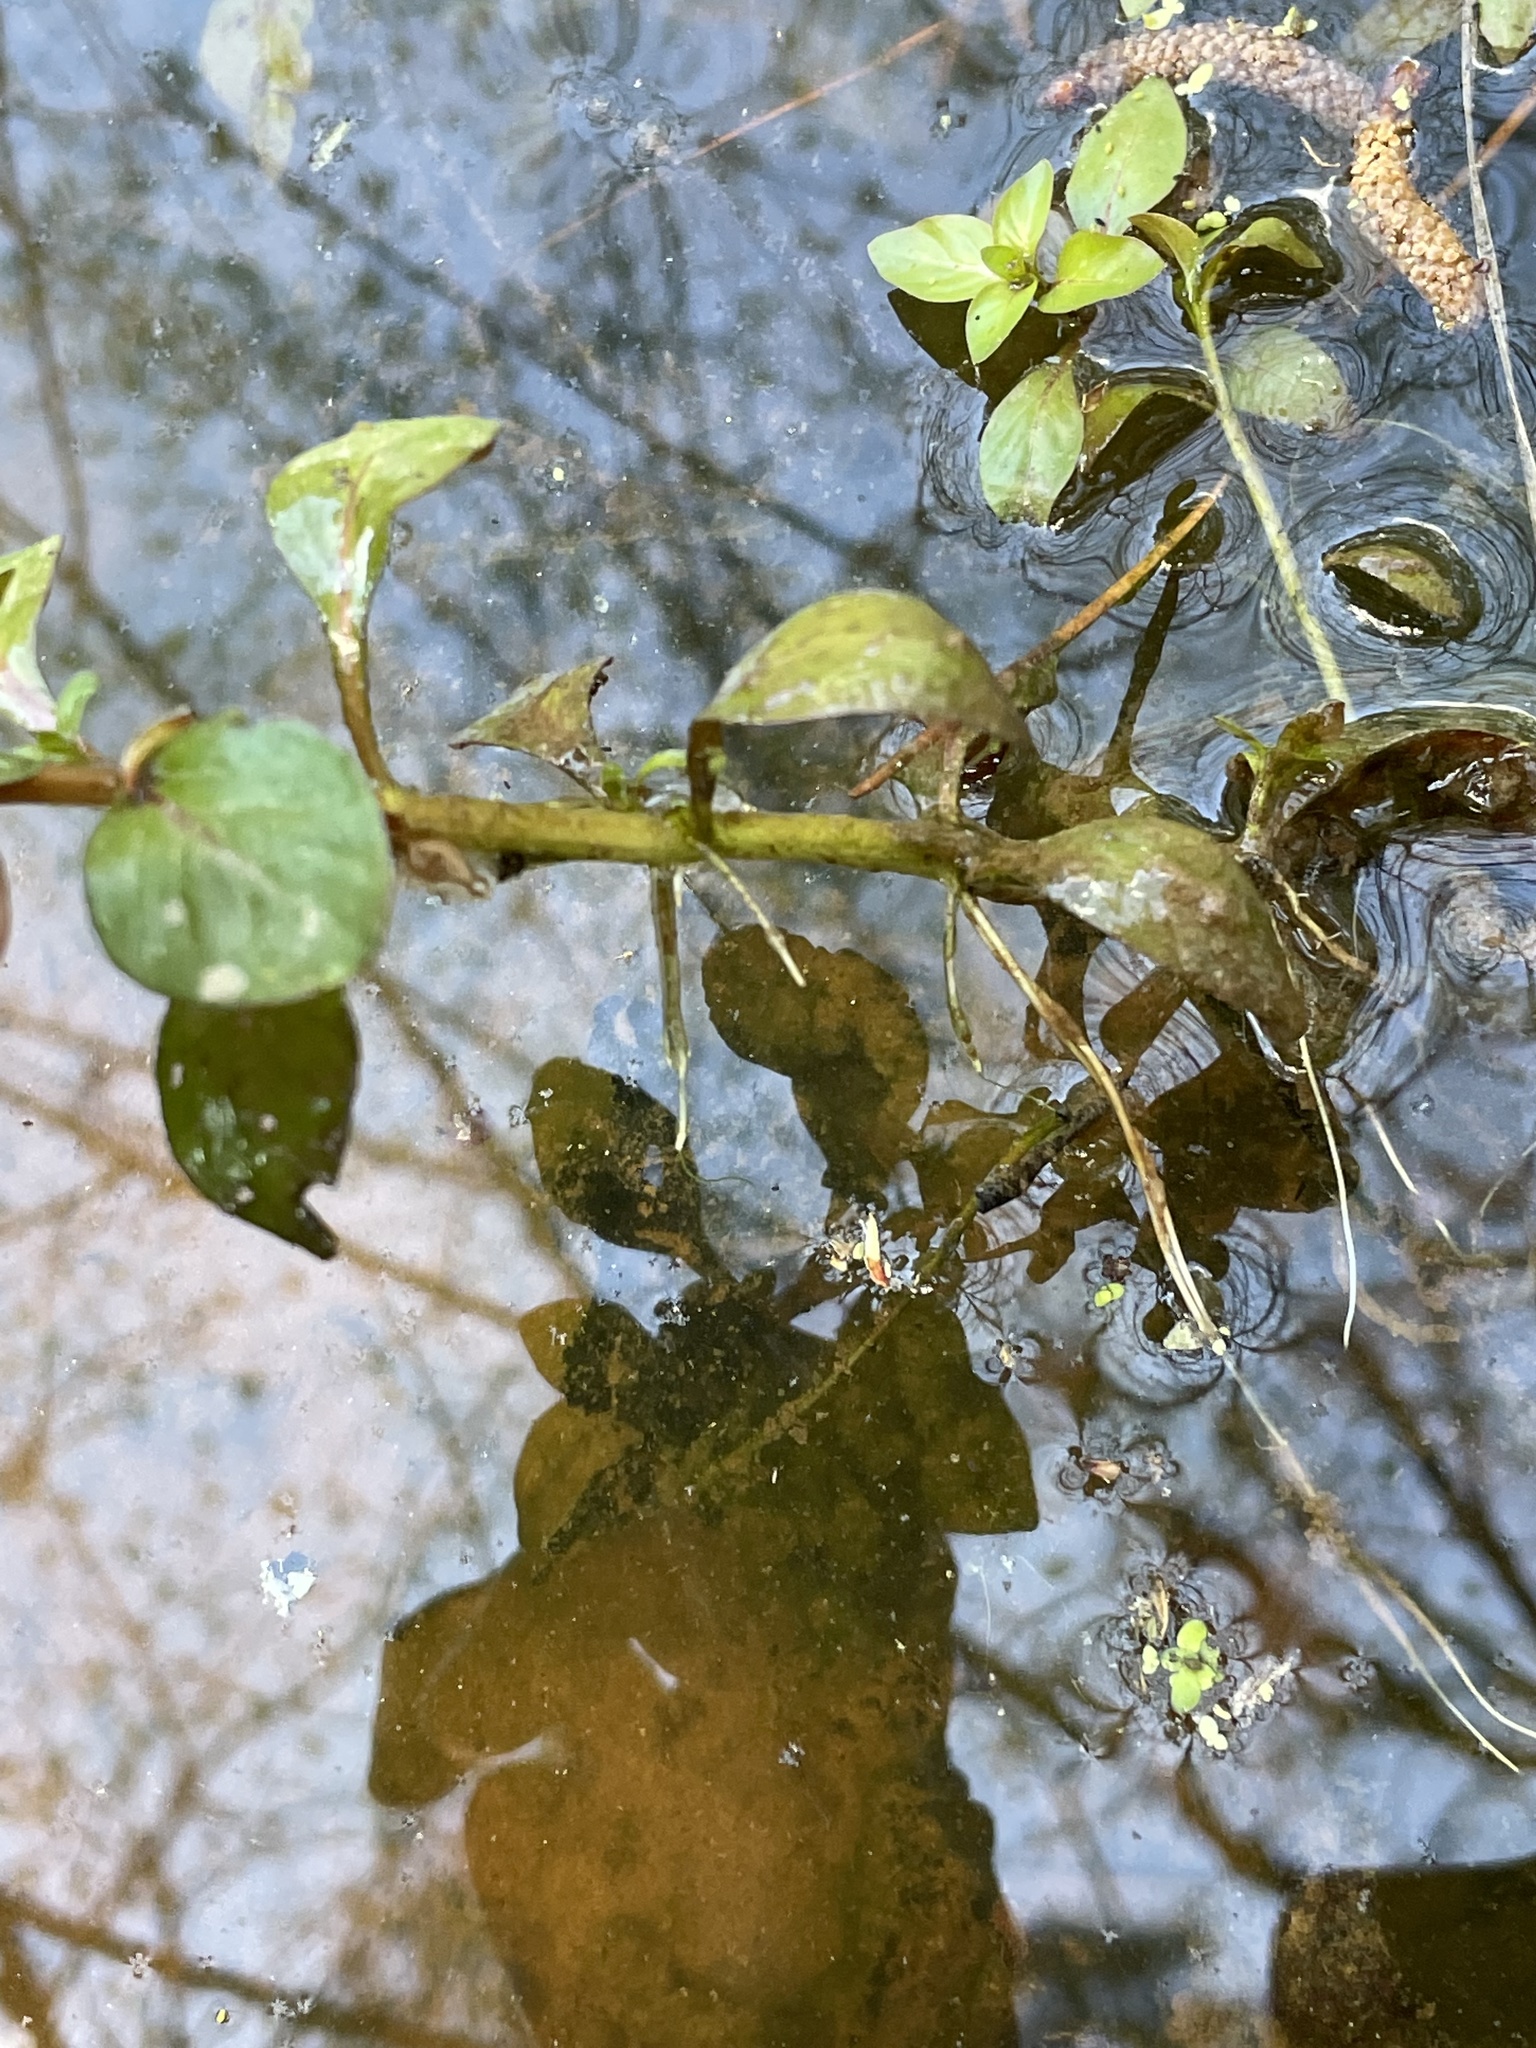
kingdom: Plantae
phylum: Tracheophyta
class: Magnoliopsida
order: Myrtales
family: Onagraceae
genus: Ludwigia
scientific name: Ludwigia palustris
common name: Hampshire-purslane
